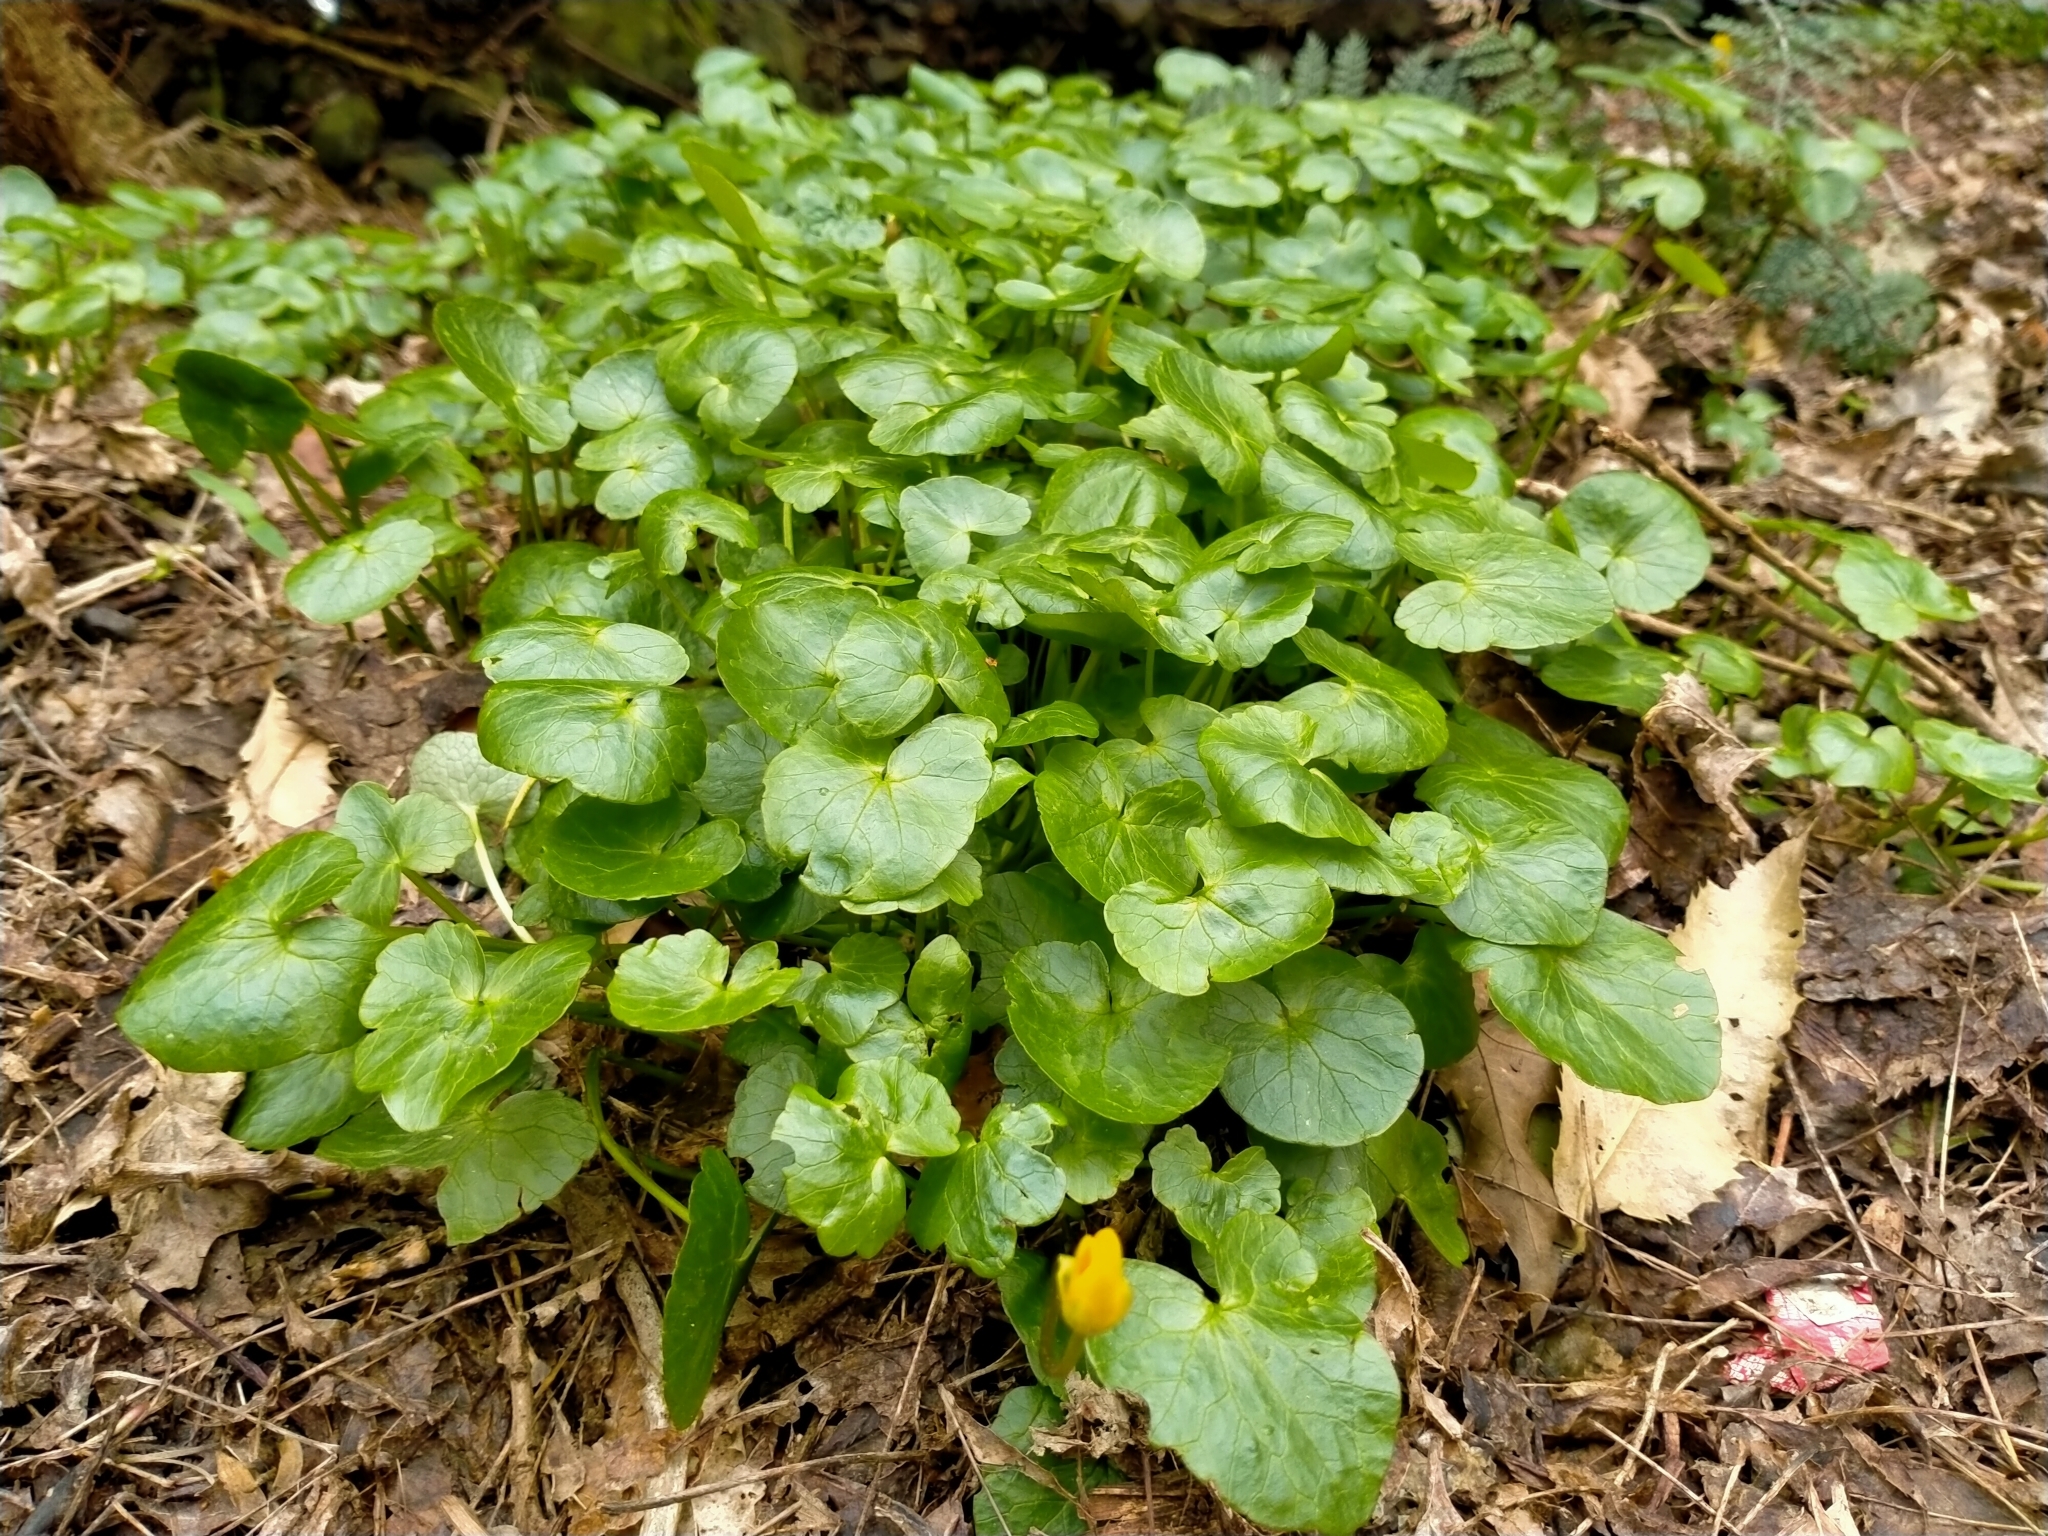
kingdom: Plantae
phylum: Tracheophyta
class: Magnoliopsida
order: Ranunculales
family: Ranunculaceae
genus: Ficaria
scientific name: Ficaria verna
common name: Lesser celandine
